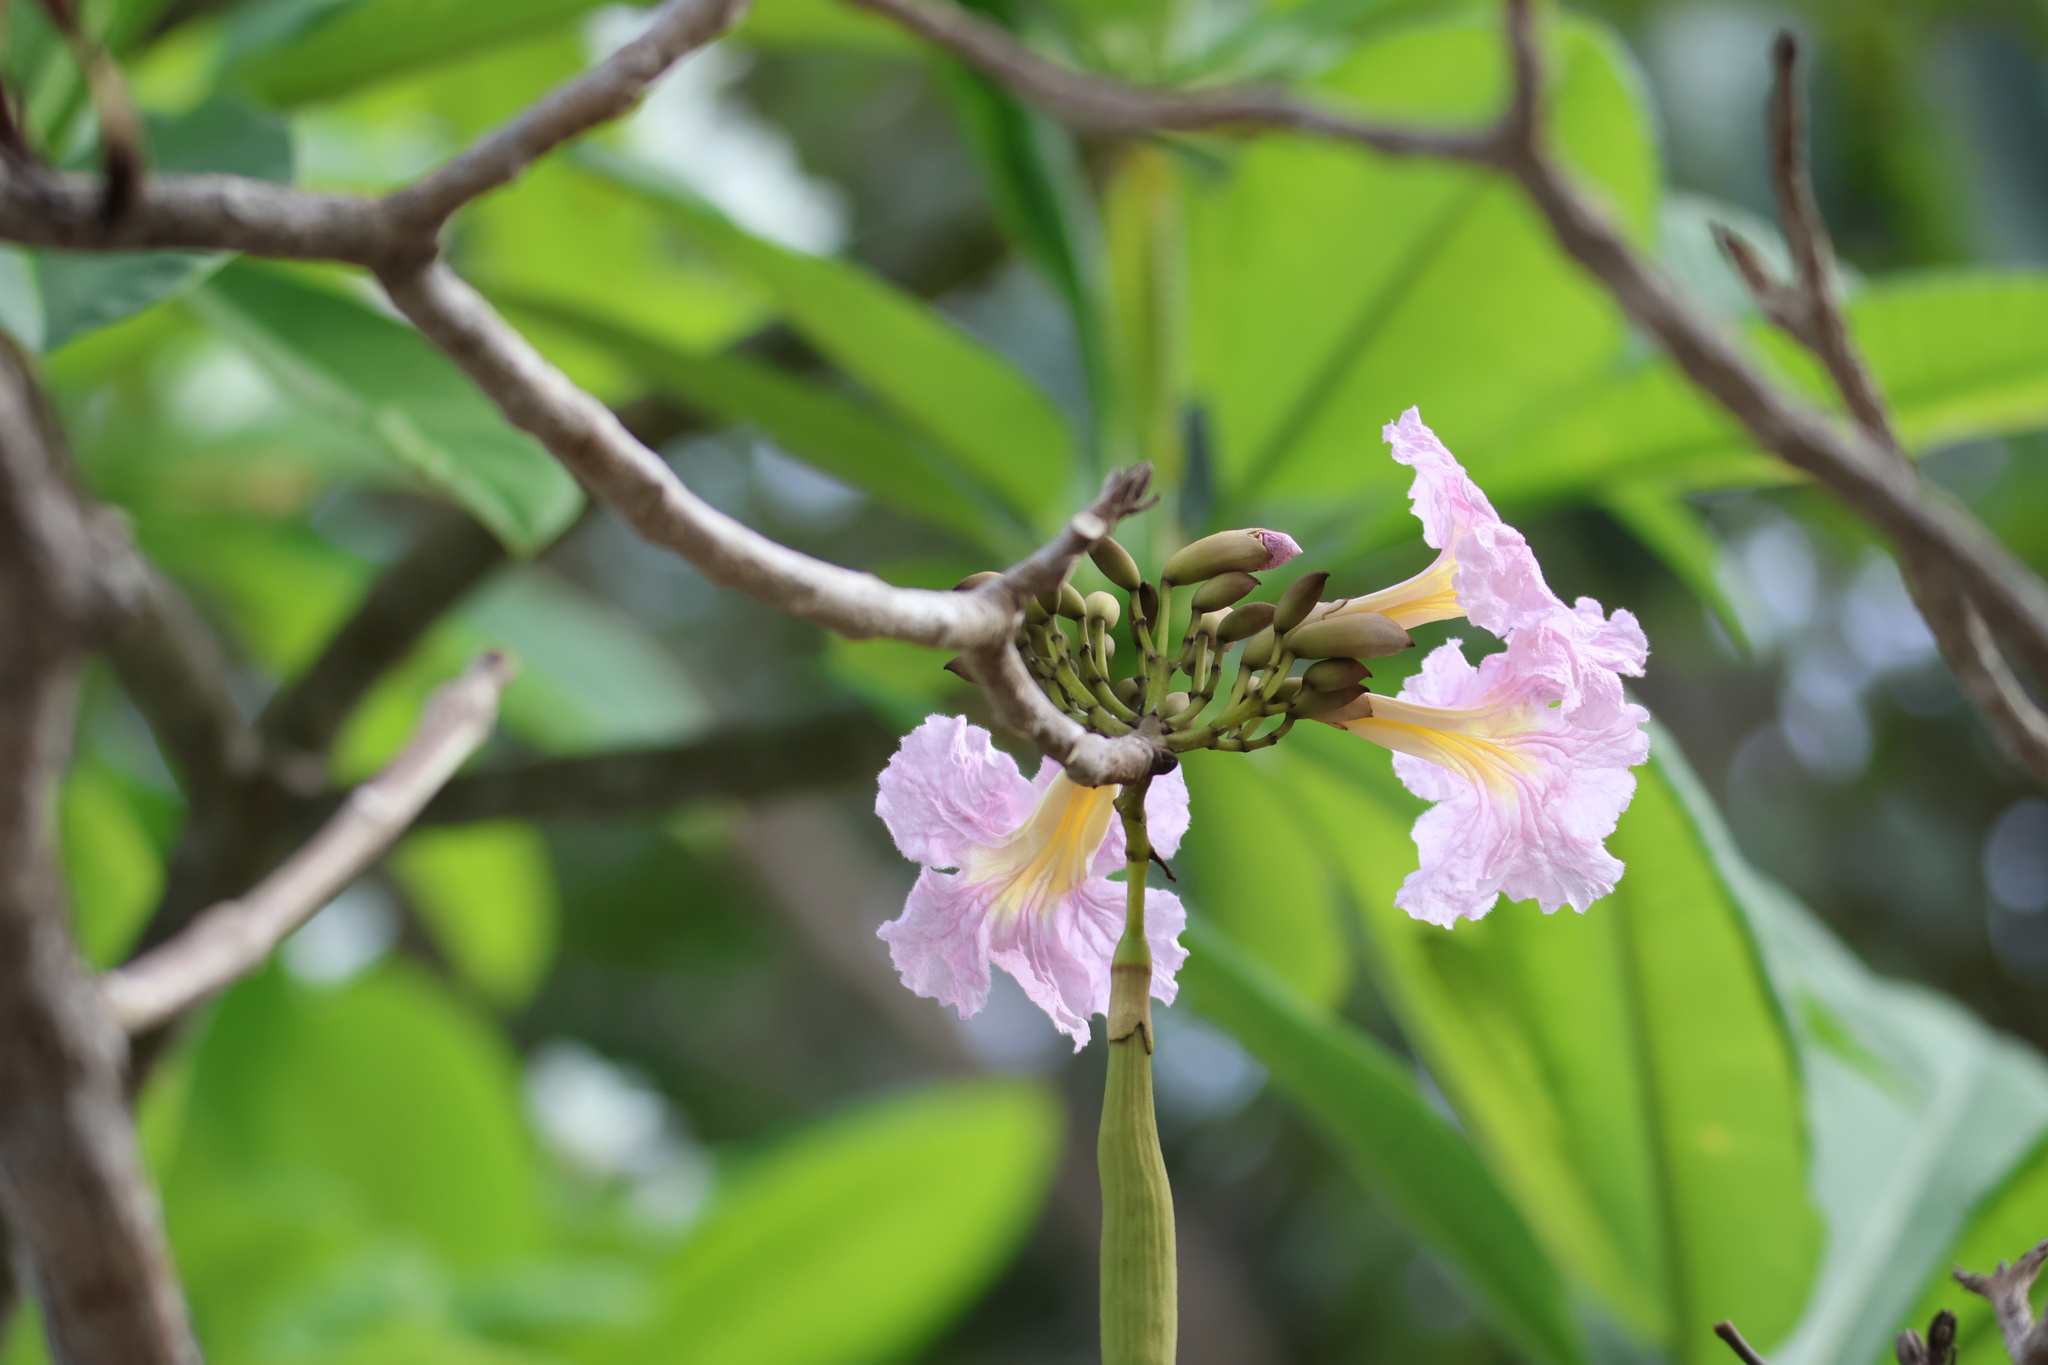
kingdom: Plantae
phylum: Tracheophyta
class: Magnoliopsida
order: Lamiales
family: Bignoniaceae
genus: Tabebuia
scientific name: Tabebuia rosea
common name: Pink poui
